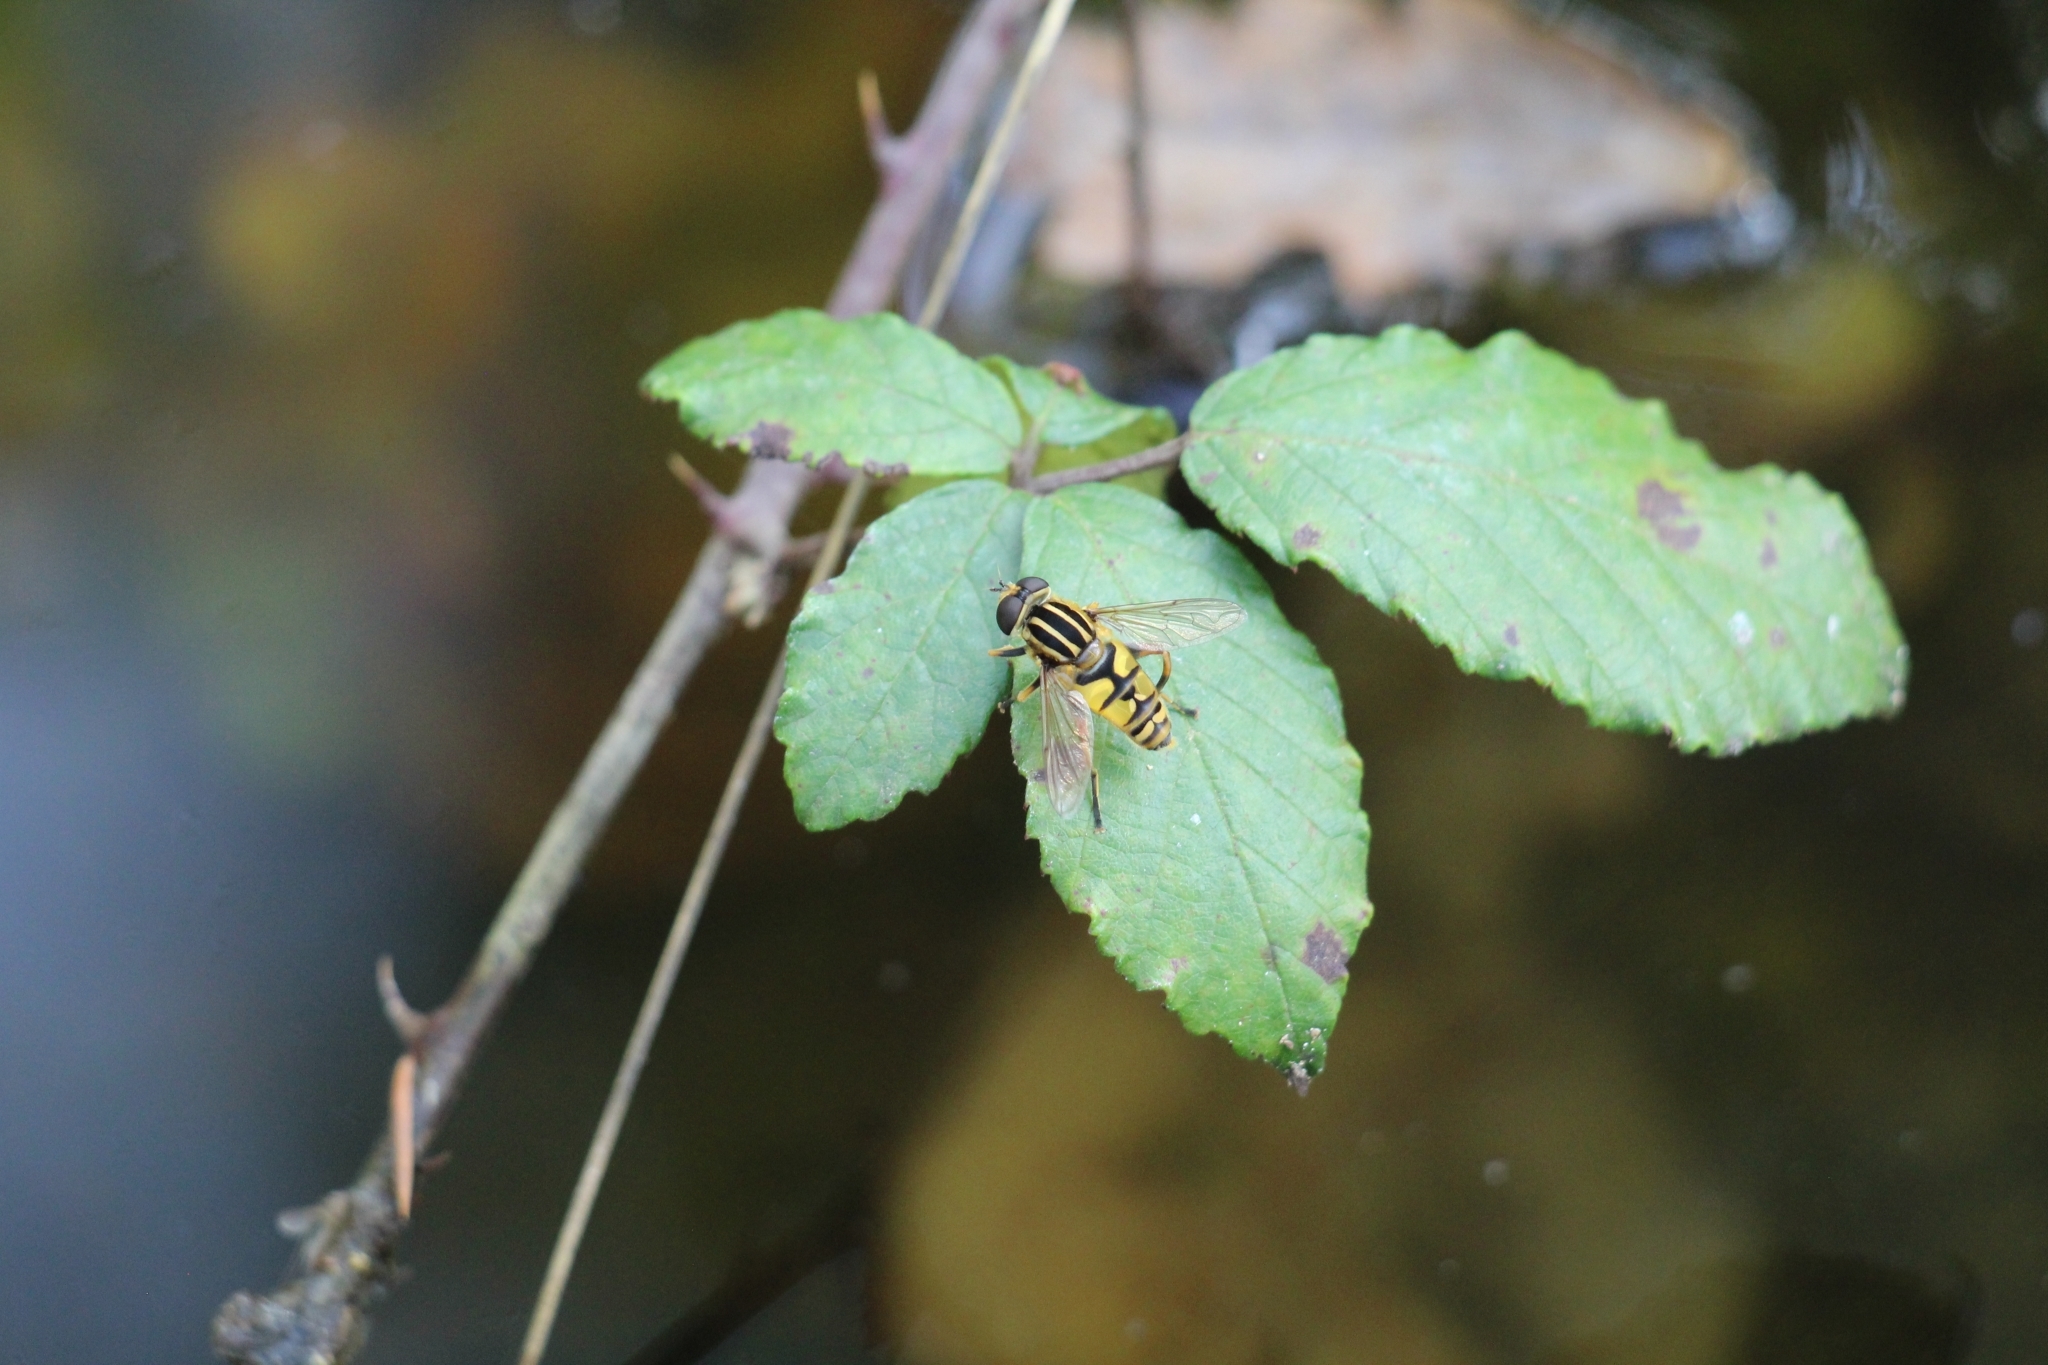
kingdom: Animalia
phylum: Arthropoda
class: Insecta
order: Diptera
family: Syrphidae
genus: Helophilus
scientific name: Helophilus pendulus
